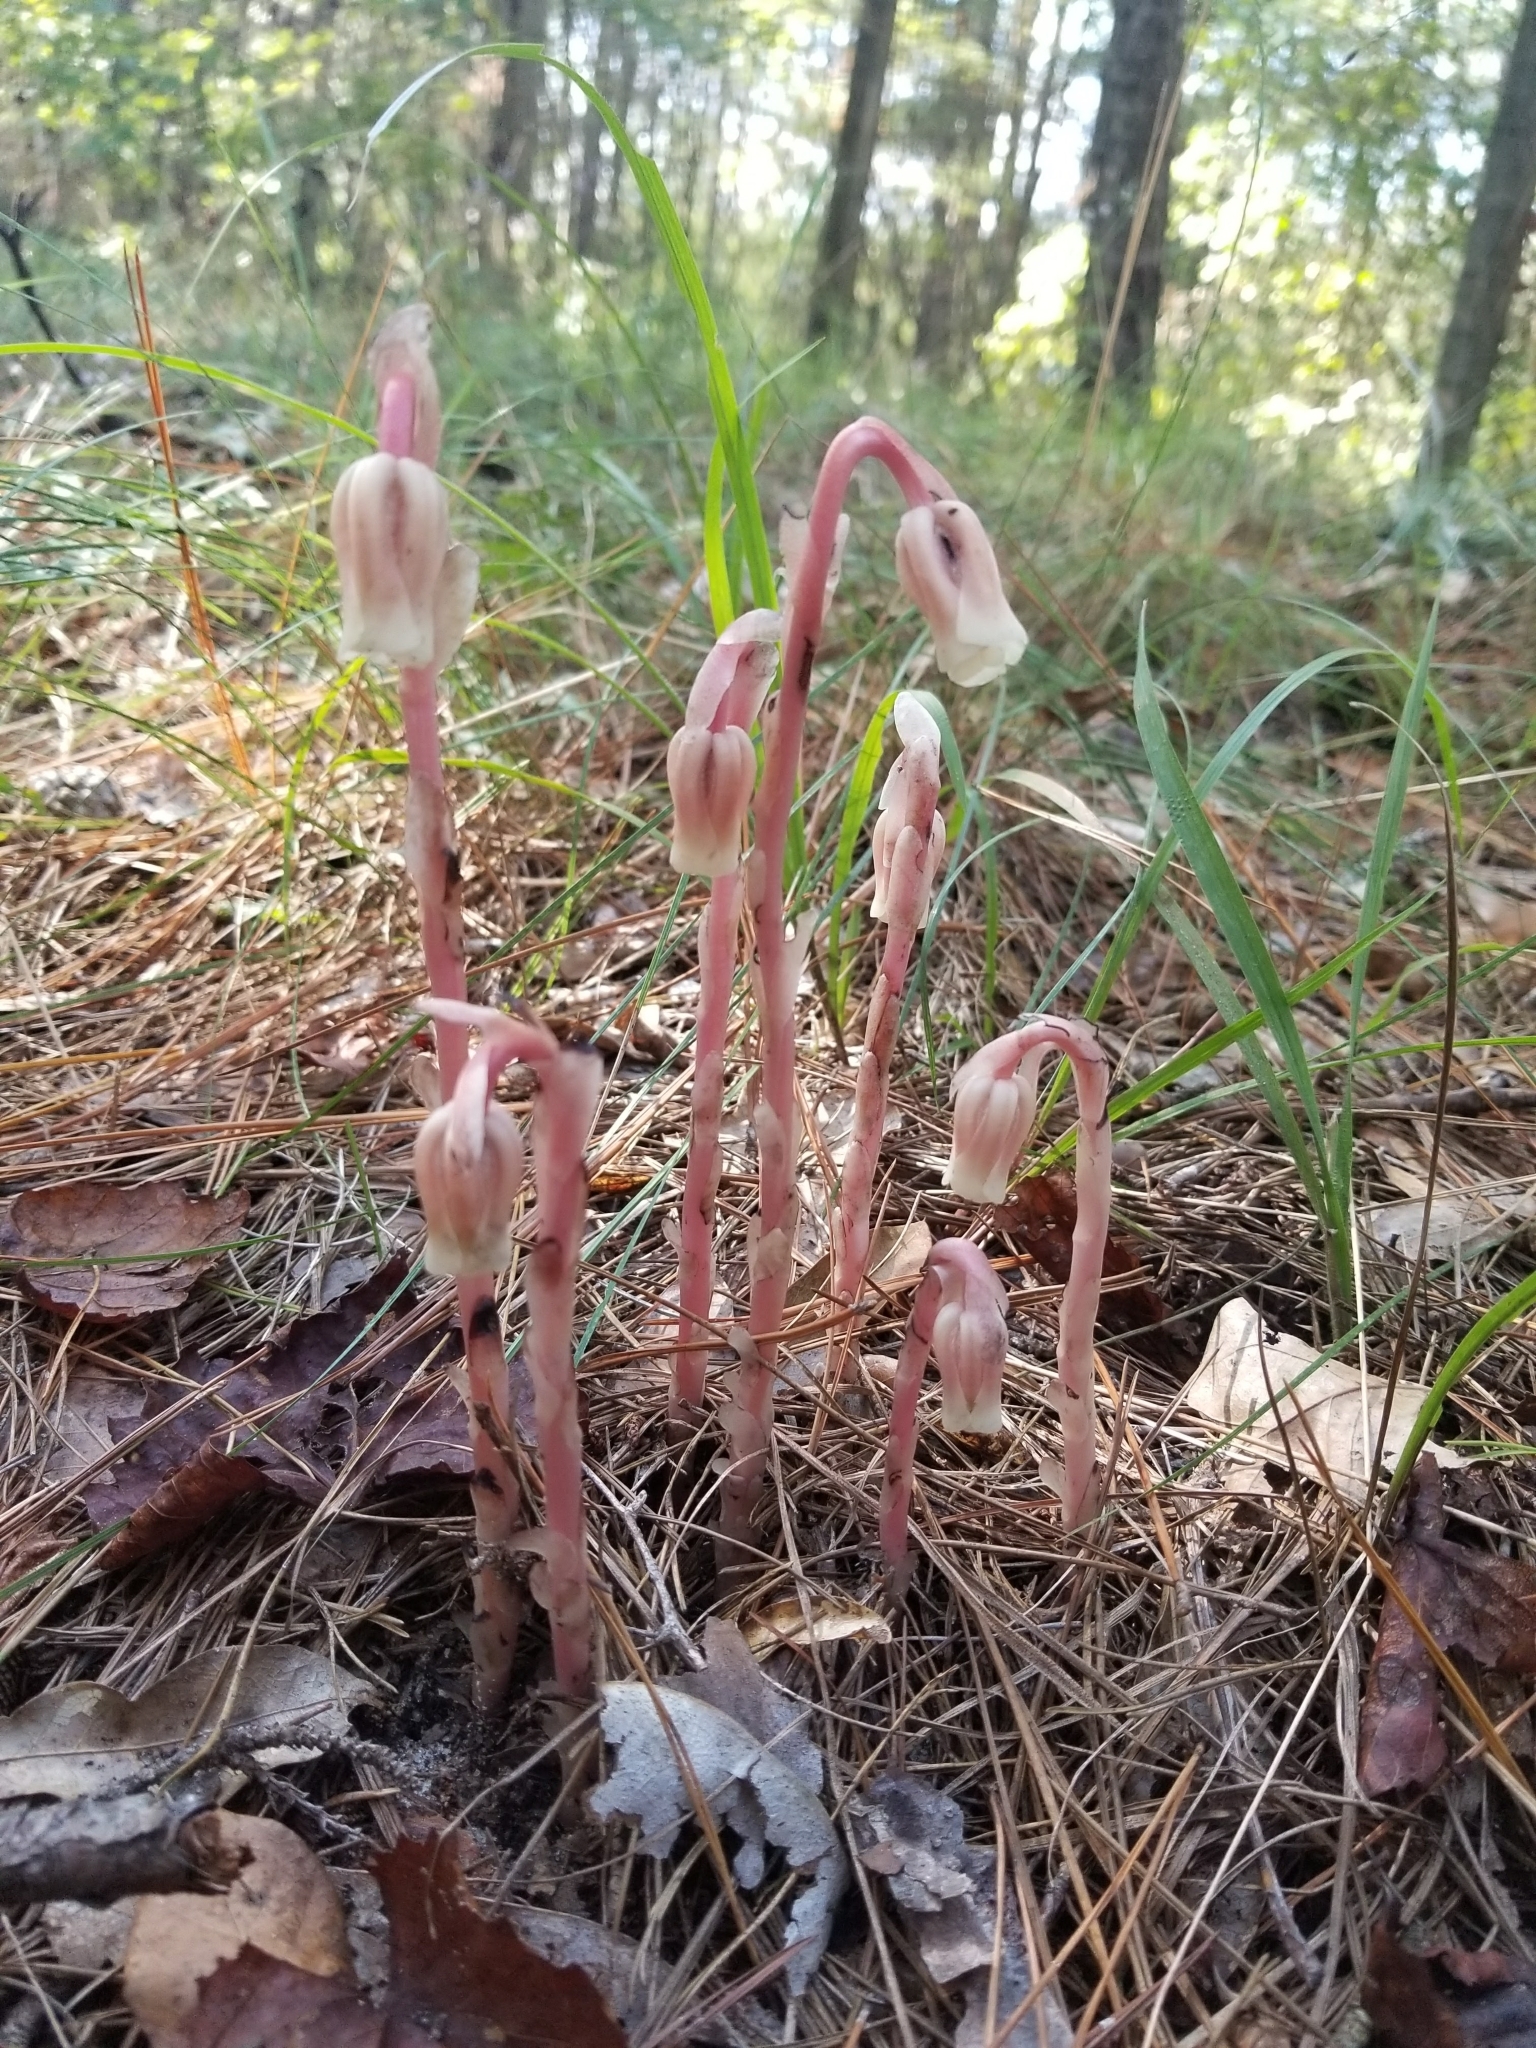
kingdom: Plantae
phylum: Tracheophyta
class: Magnoliopsida
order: Ericales
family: Ericaceae
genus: Monotropa
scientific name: Monotropa uniflora
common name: Convulsion root
